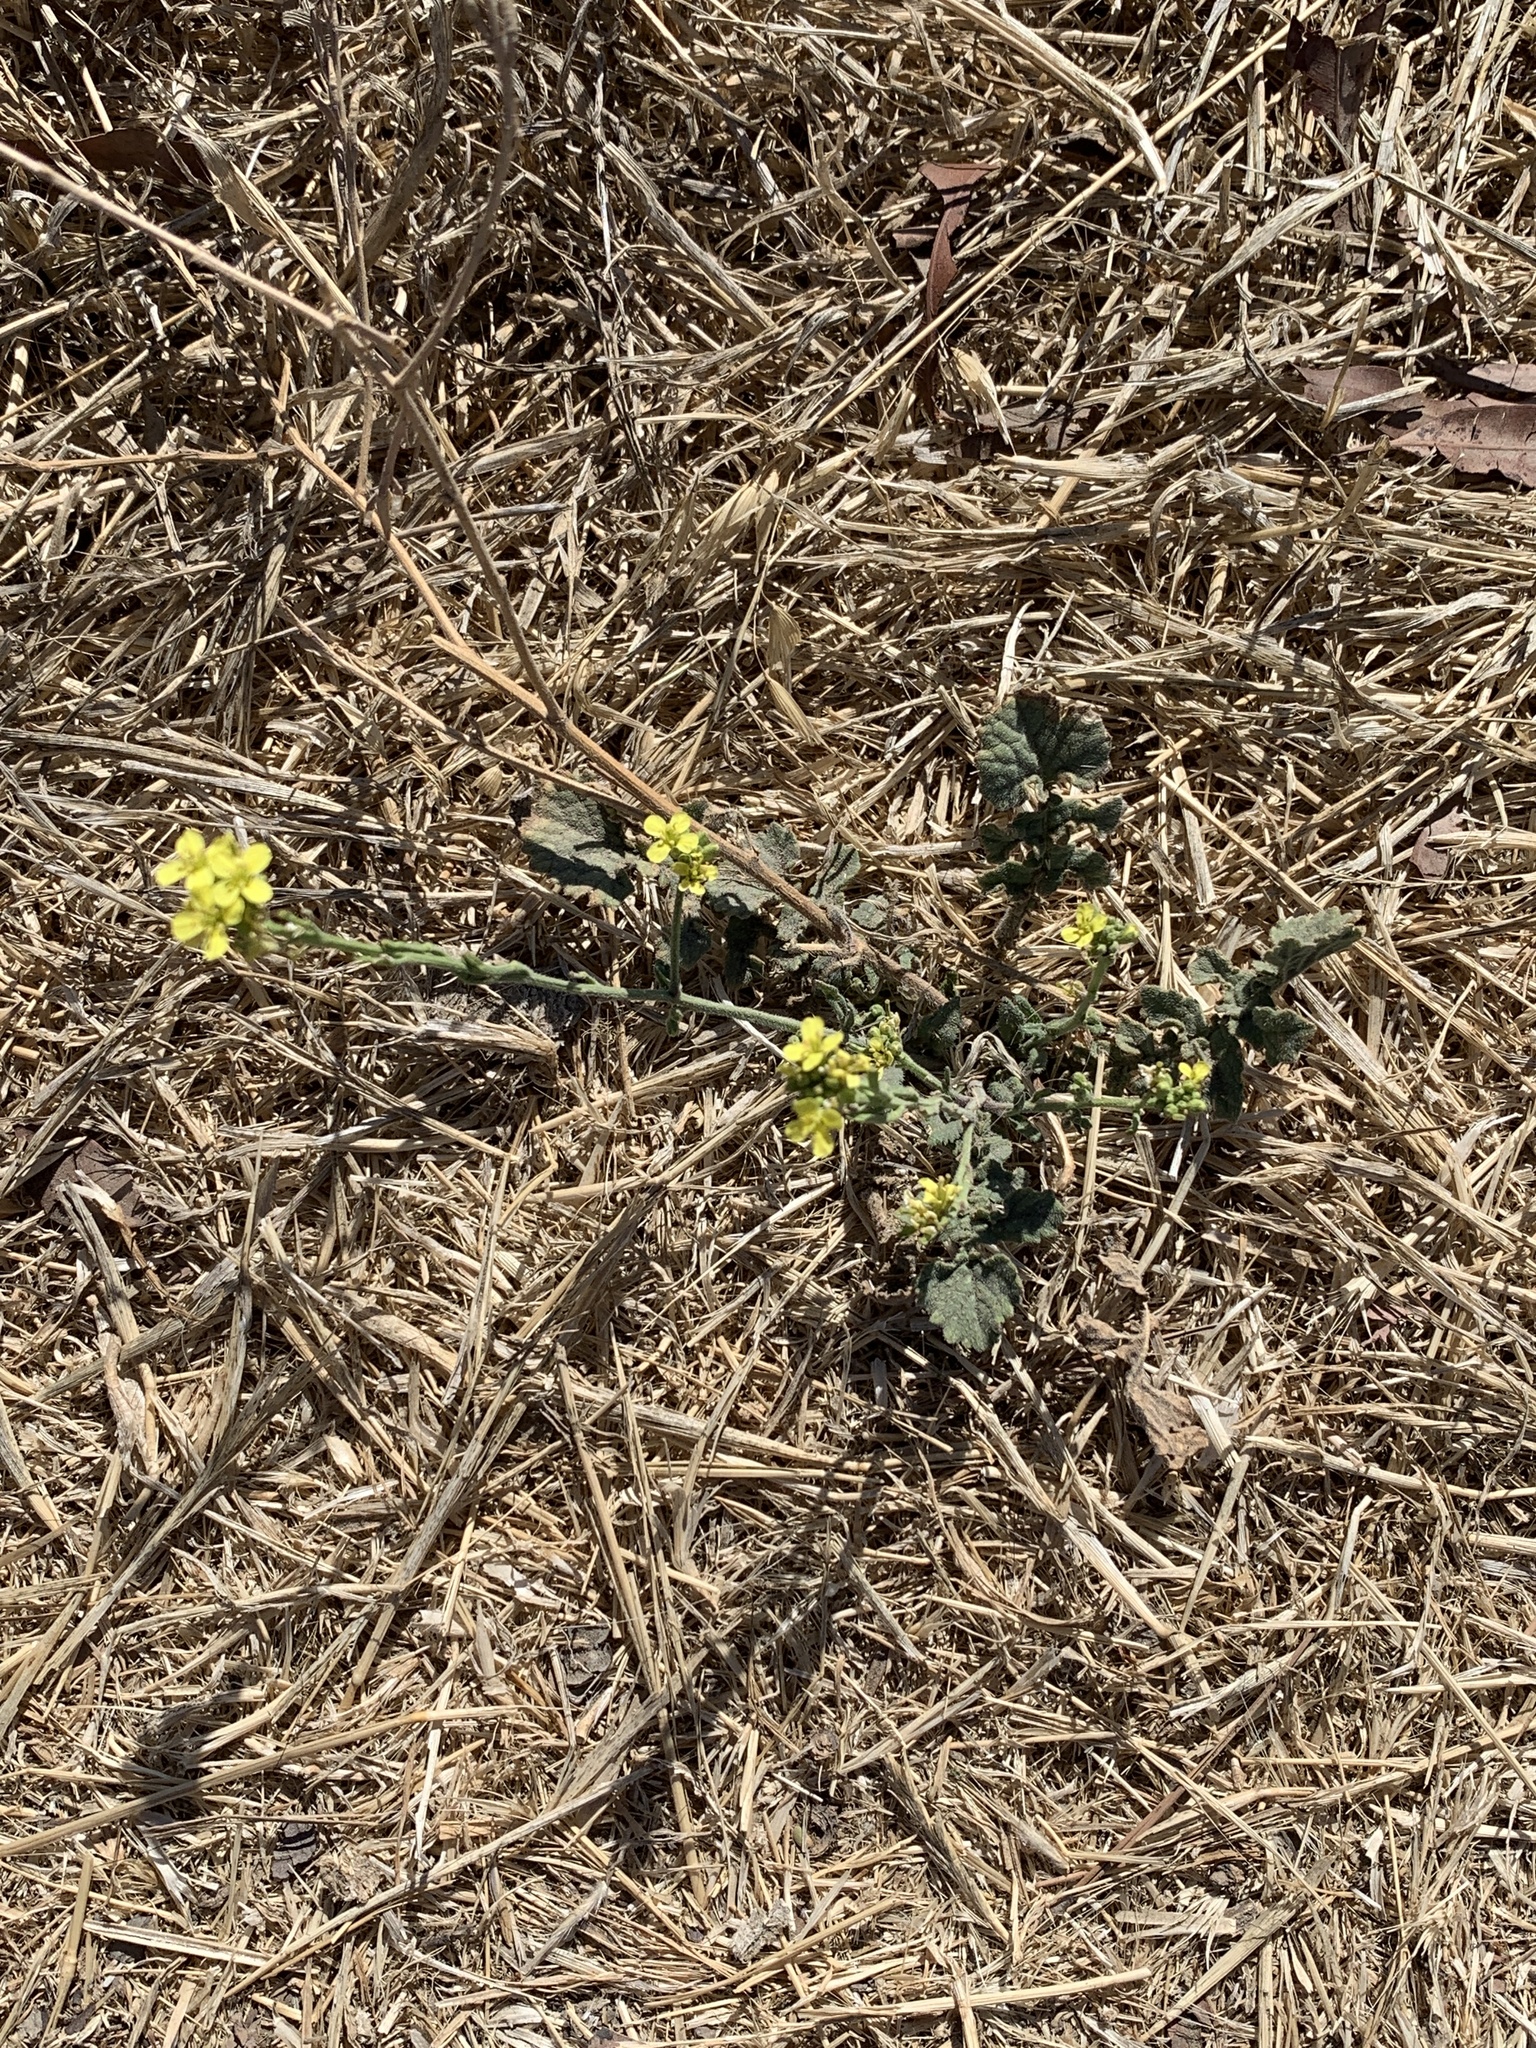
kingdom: Plantae
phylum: Tracheophyta
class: Magnoliopsida
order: Brassicales
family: Brassicaceae
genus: Hirschfeldia
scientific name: Hirschfeldia incana
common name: Hoary mustard
